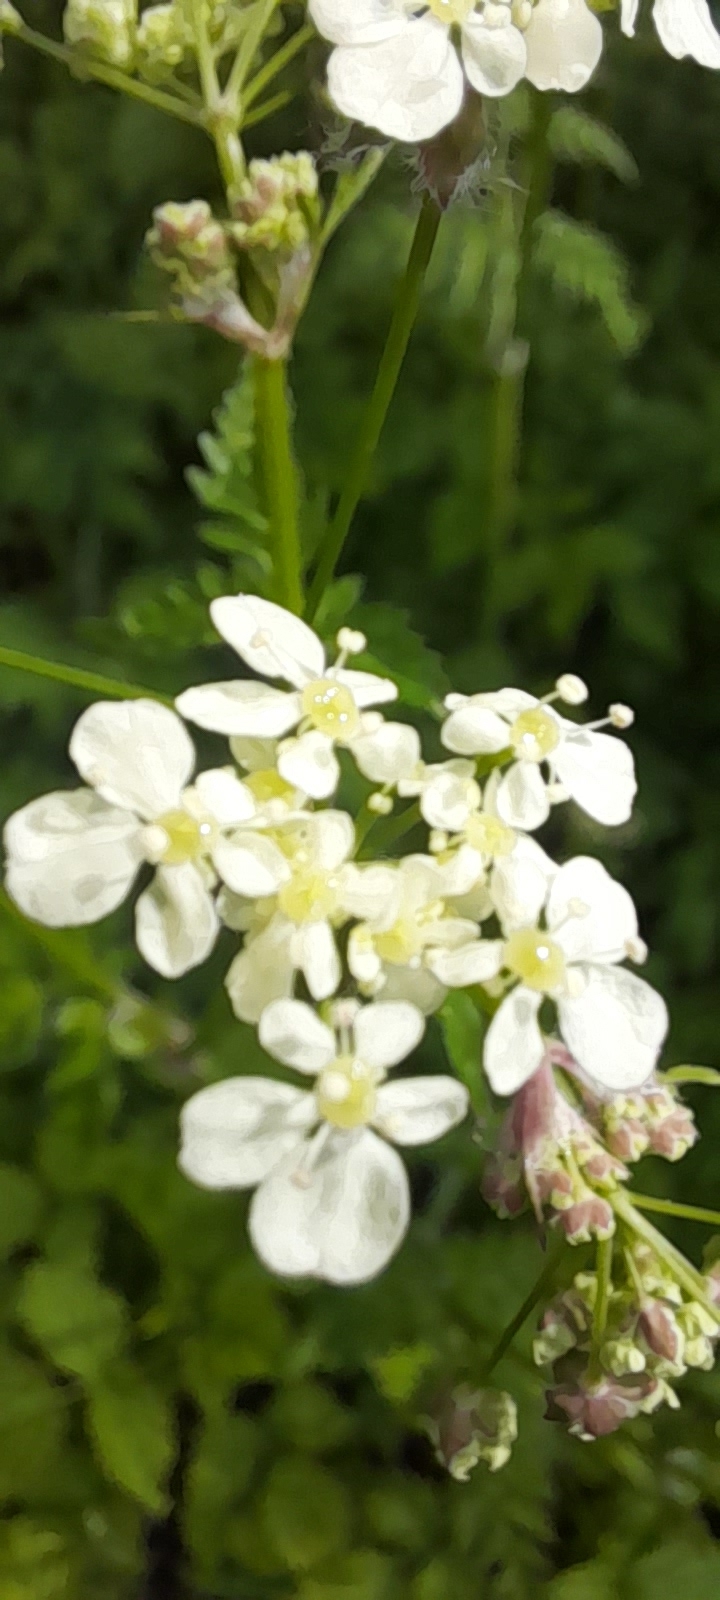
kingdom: Plantae
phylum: Tracheophyta
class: Magnoliopsida
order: Apiales
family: Apiaceae
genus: Anthriscus
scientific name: Anthriscus sylvestris
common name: Cow parsley
